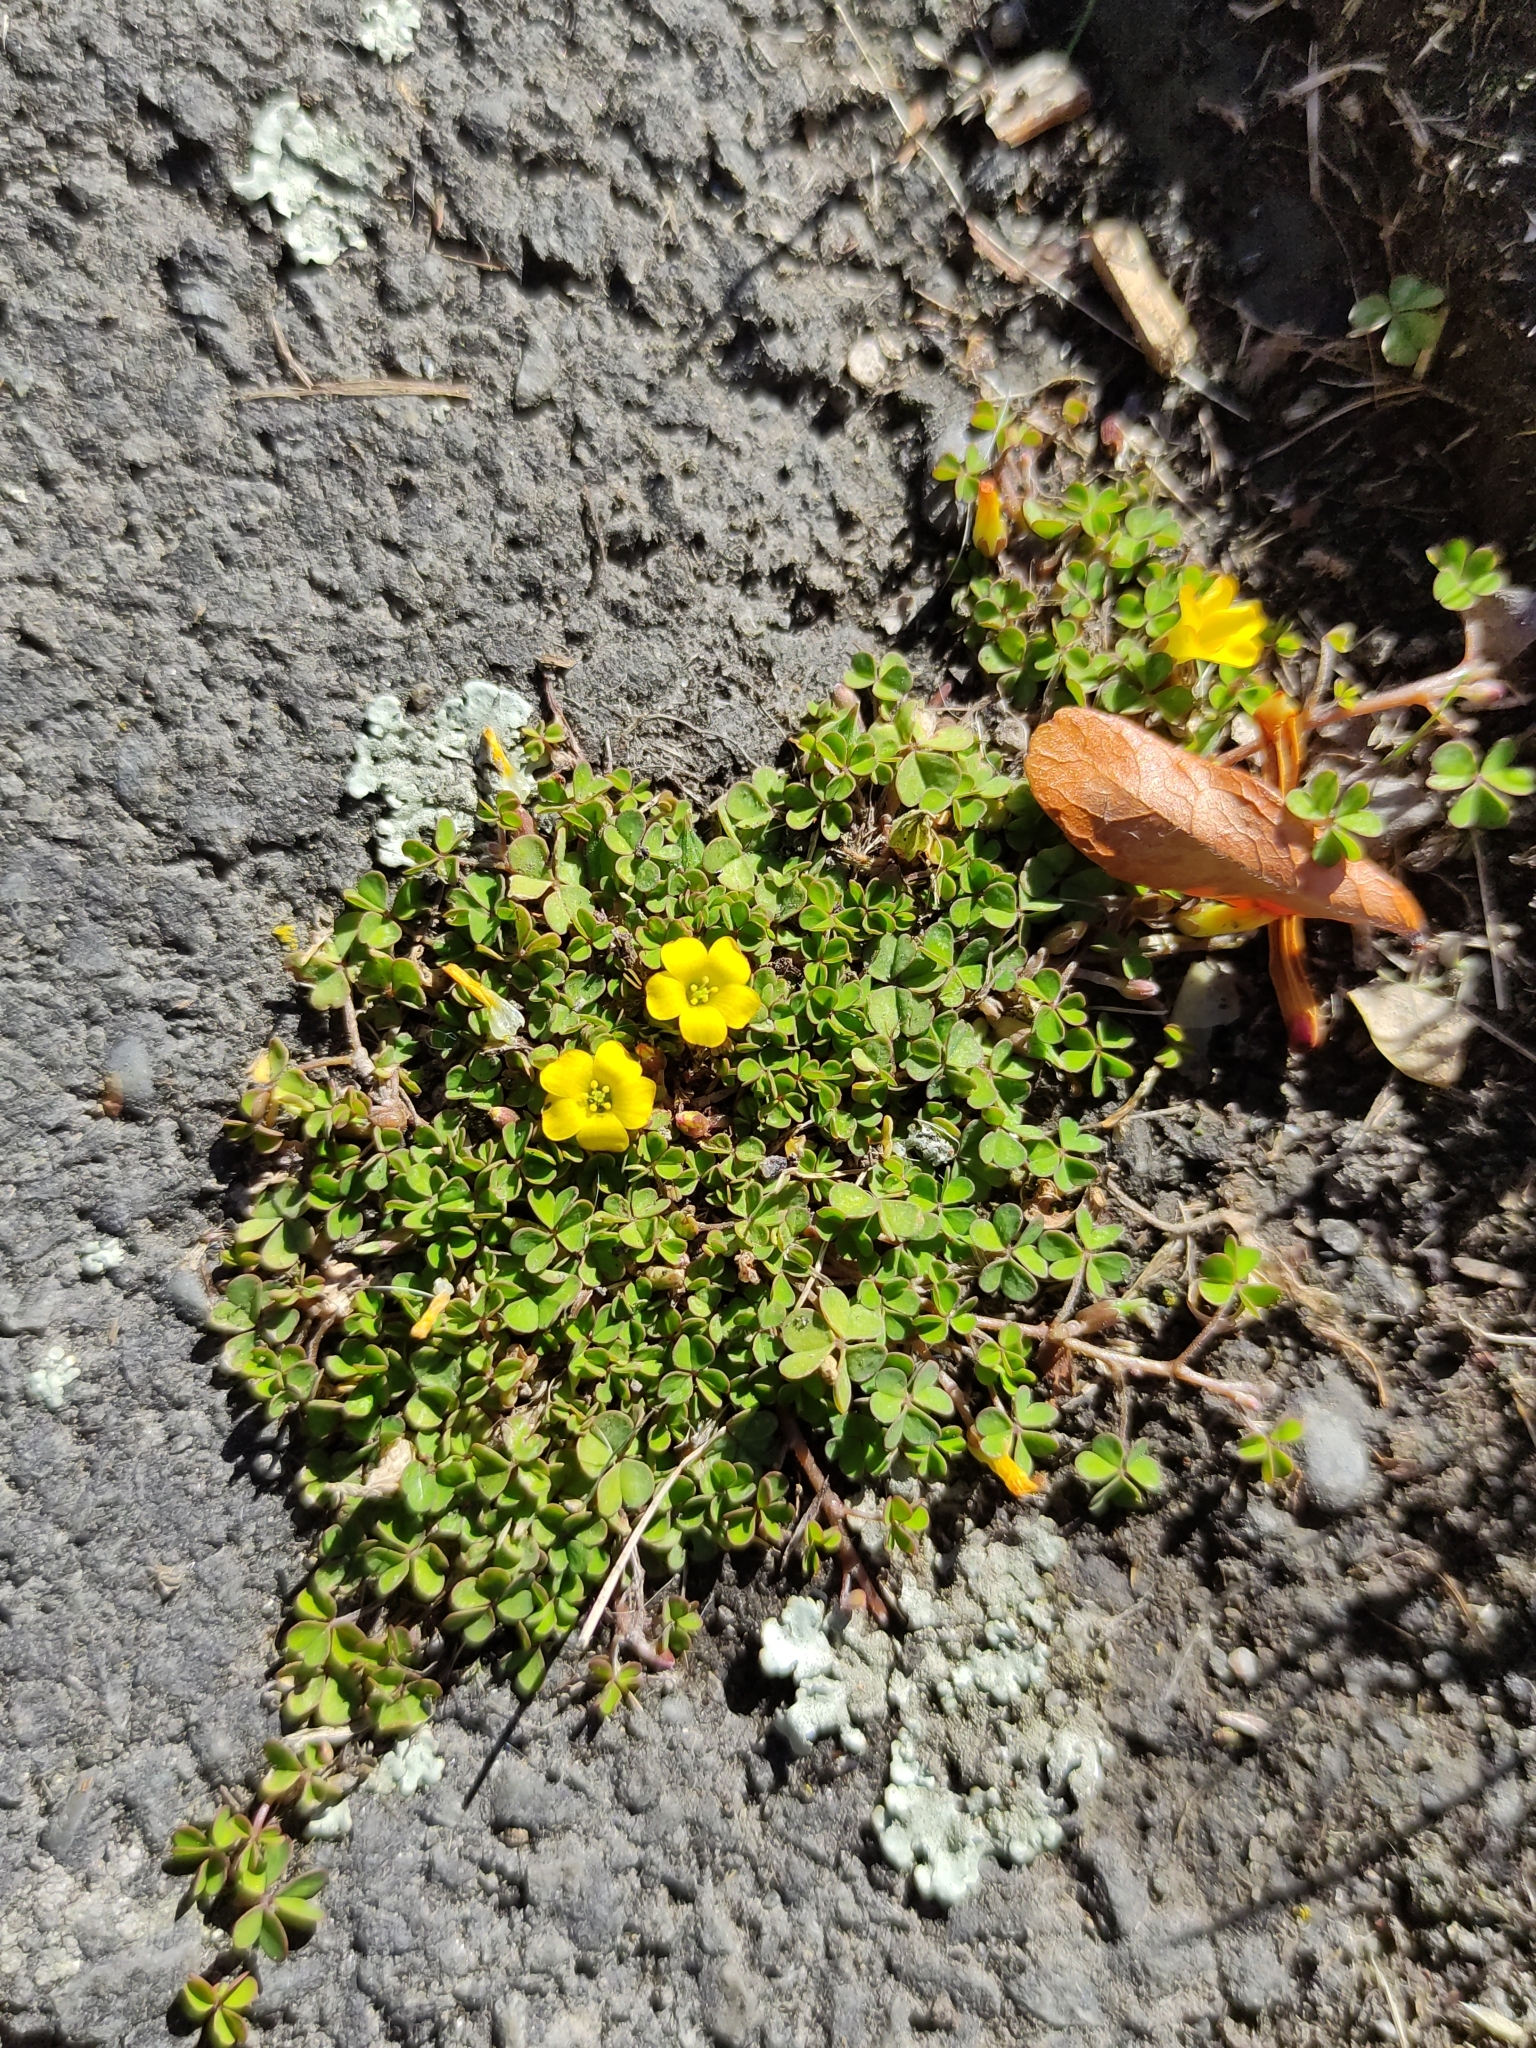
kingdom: Plantae
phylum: Tracheophyta
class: Magnoliopsida
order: Oxalidales
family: Oxalidaceae
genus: Oxalis
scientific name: Oxalis exilis
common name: Least yellow-sorrel
